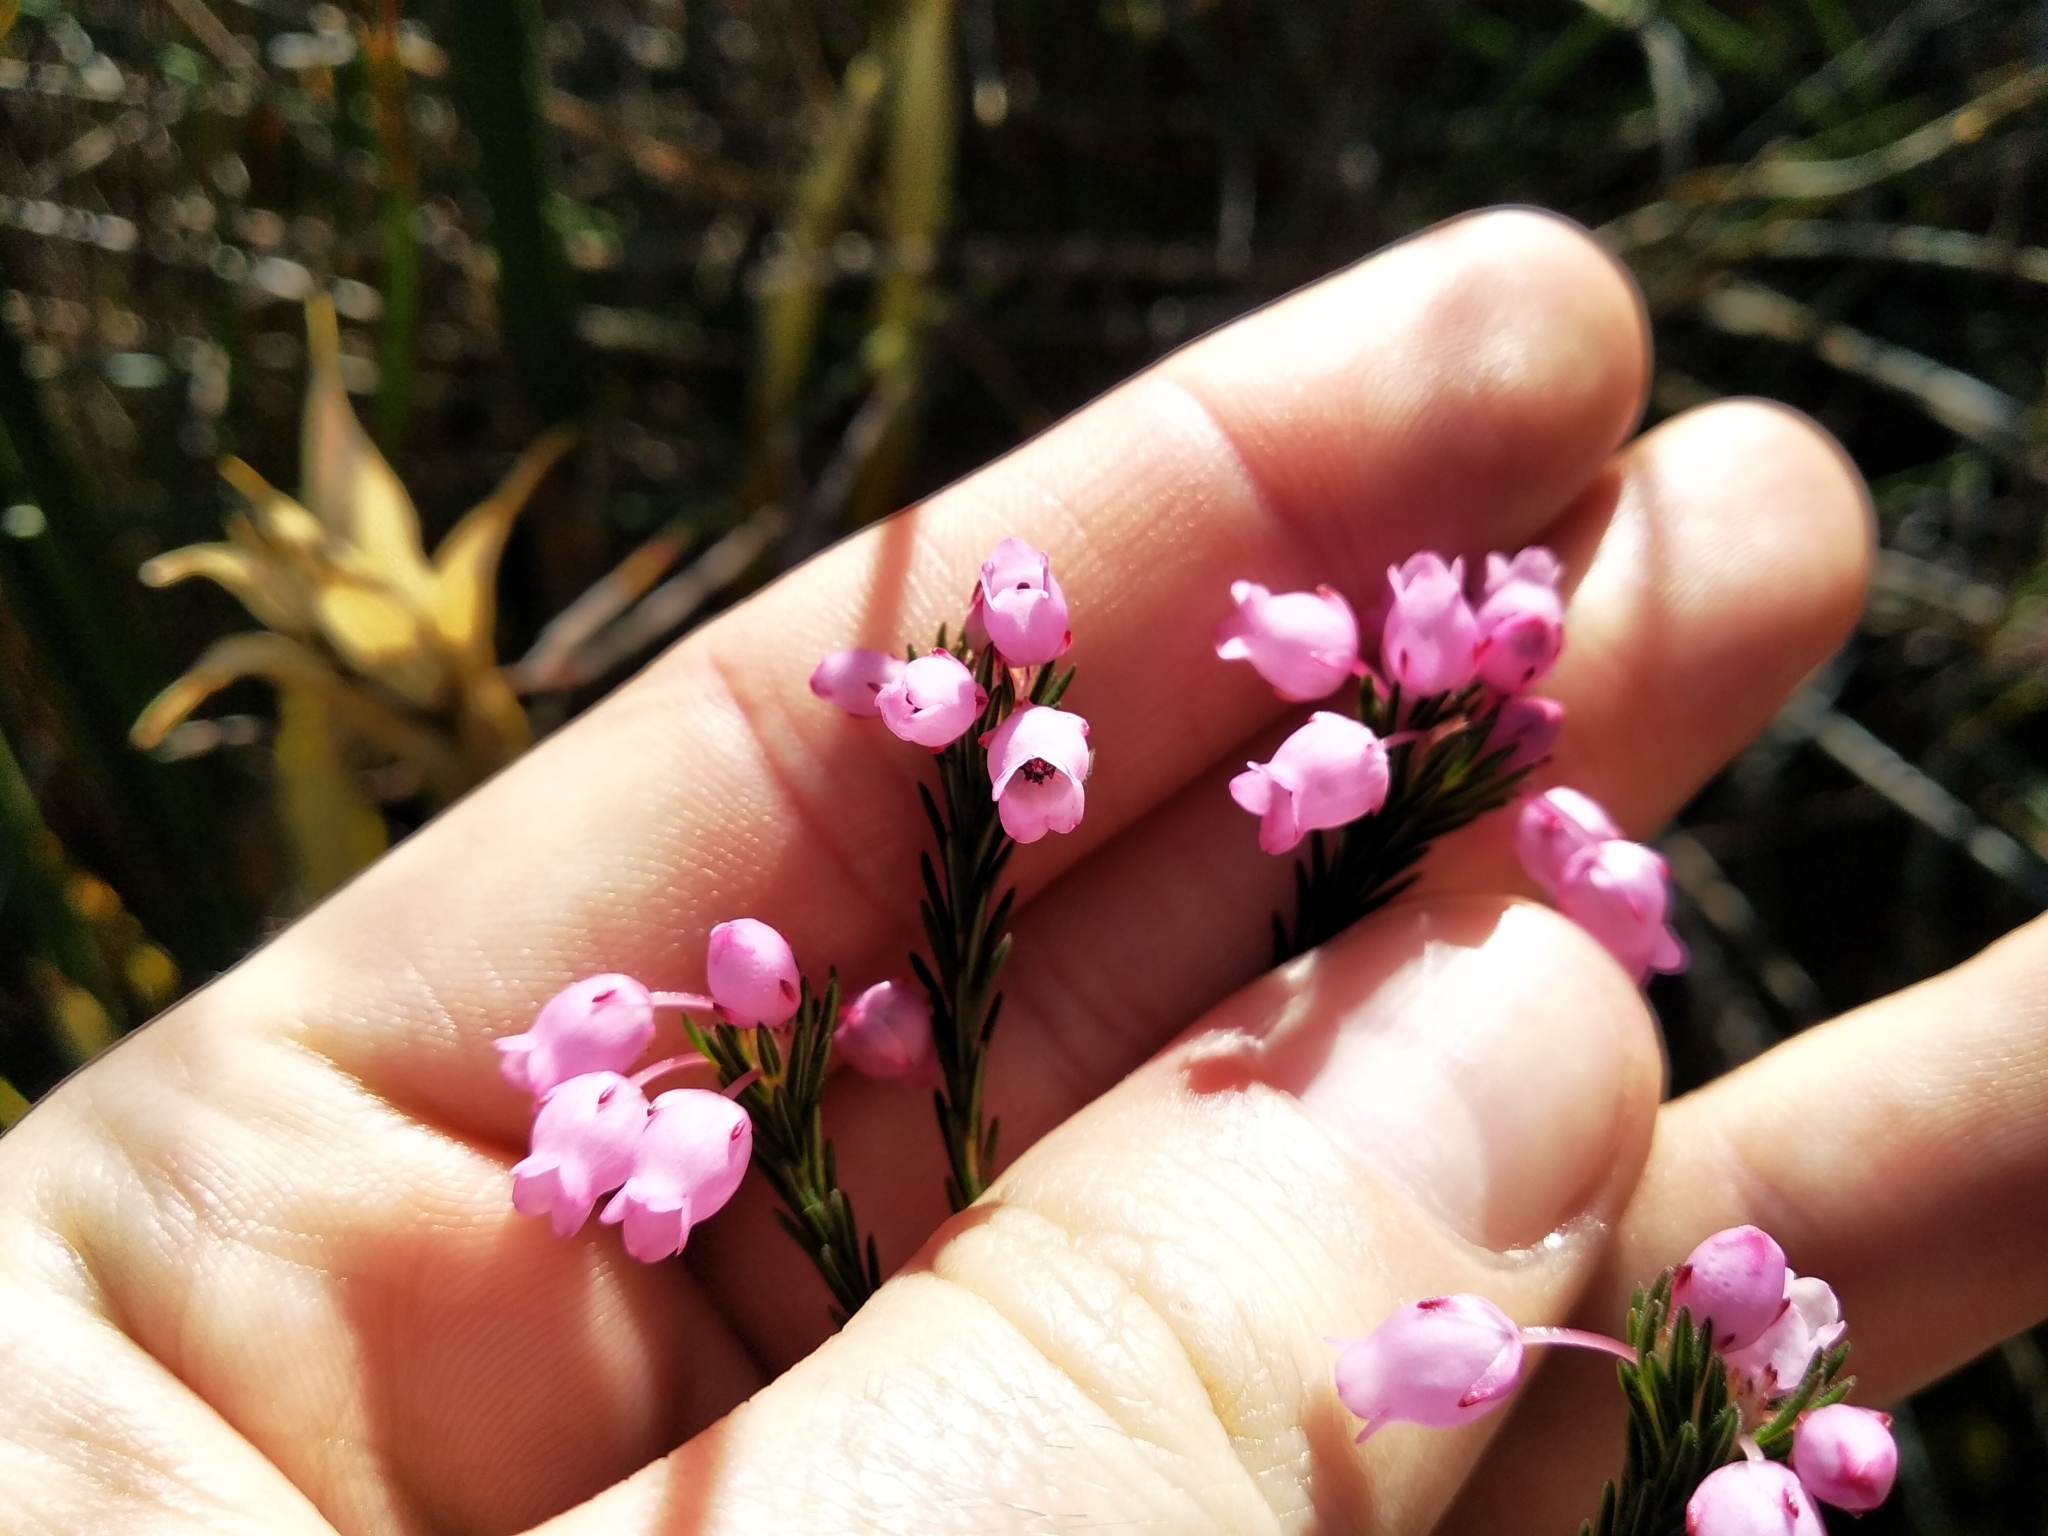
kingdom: Plantae
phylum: Tracheophyta
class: Magnoliopsida
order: Ericales
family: Ericaceae
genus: Erica
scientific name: Erica pilulifera
